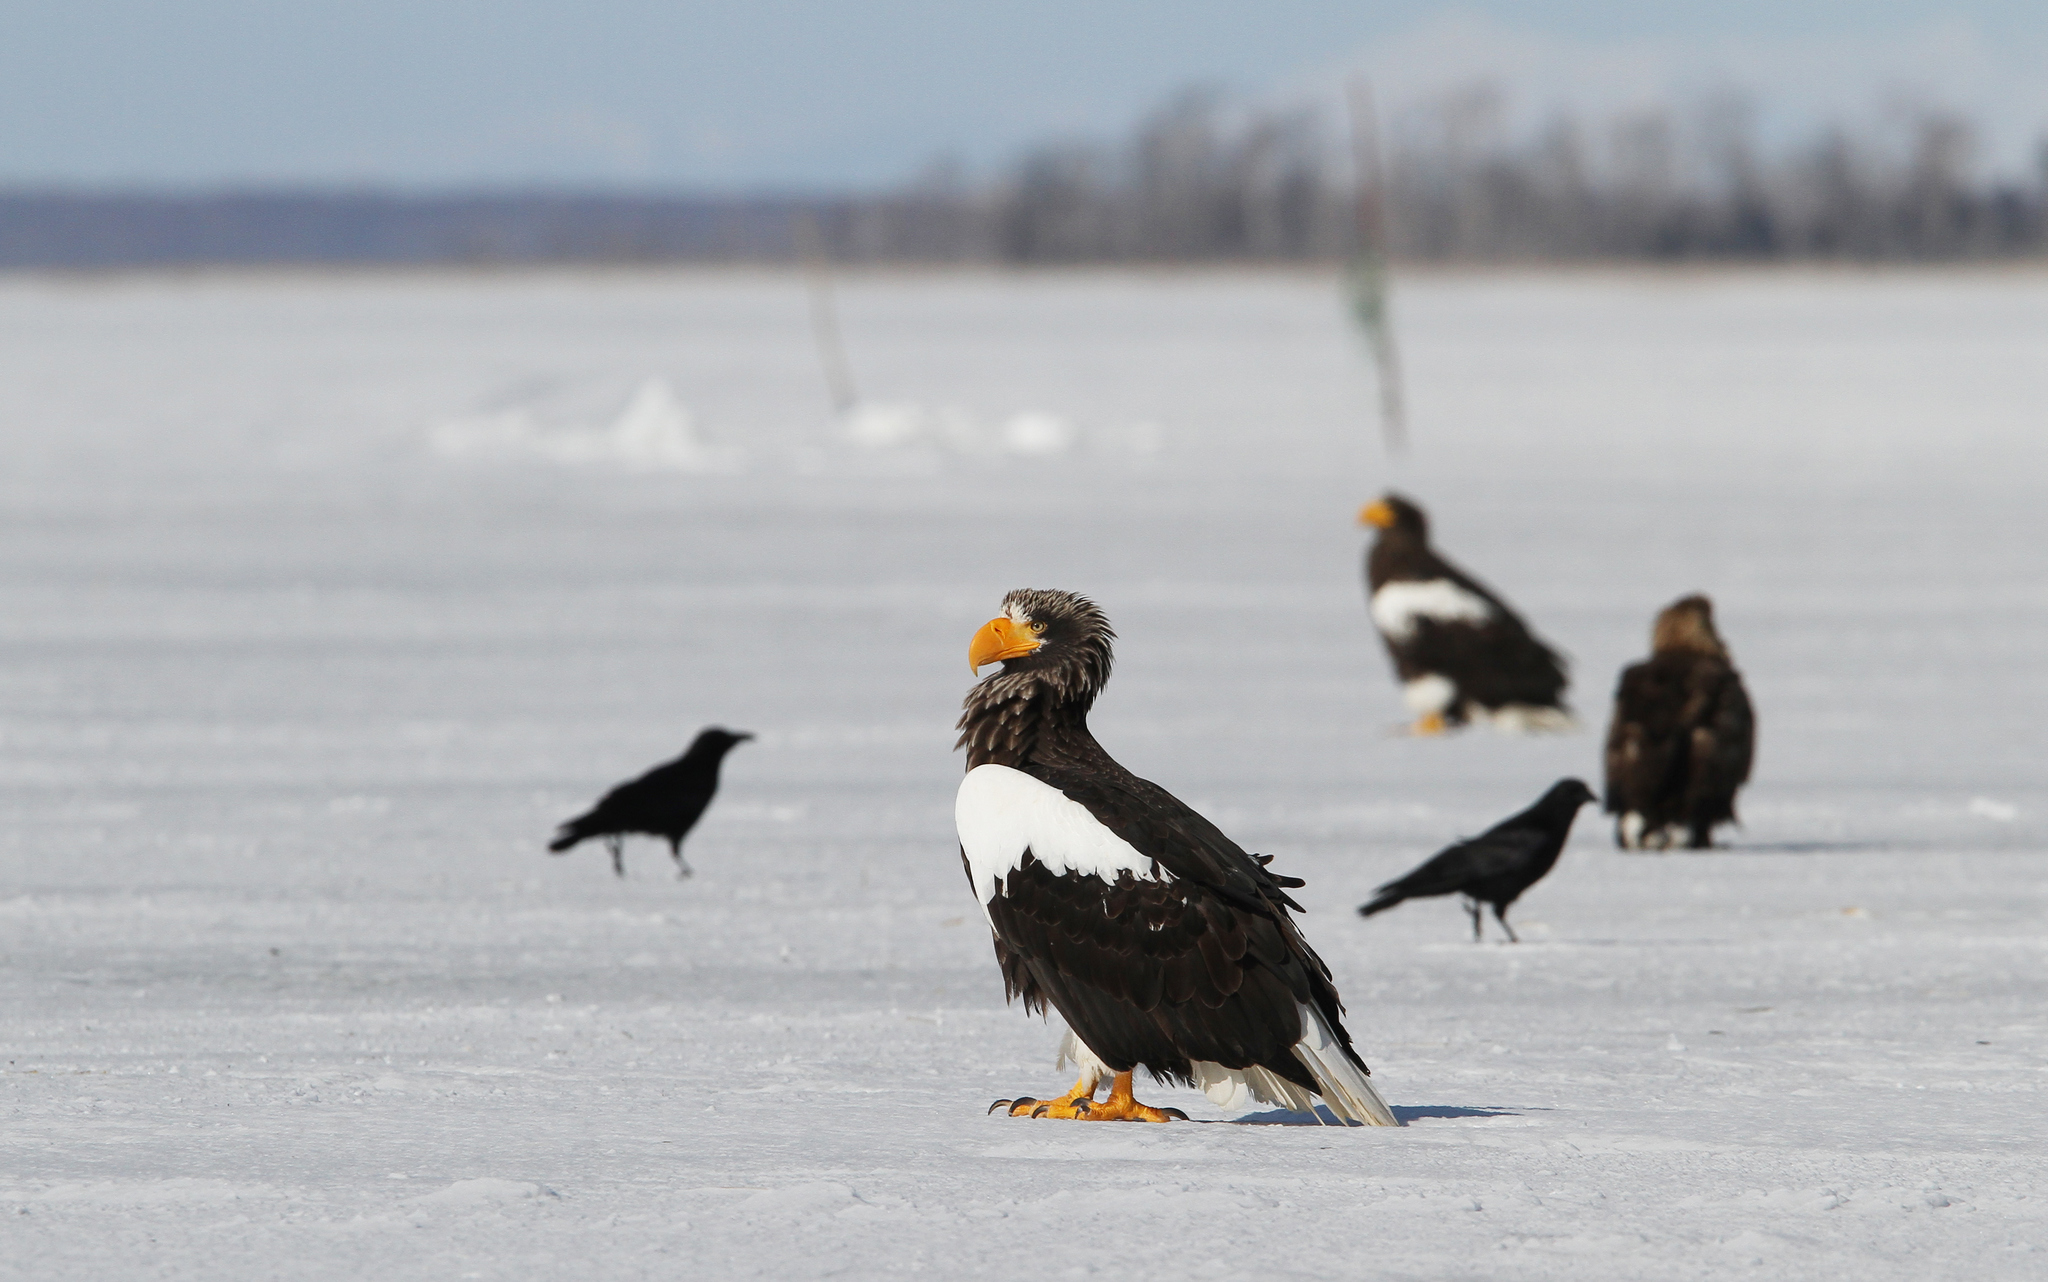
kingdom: Animalia
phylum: Chordata
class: Aves
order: Accipitriformes
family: Accipitridae
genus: Haliaeetus
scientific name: Haliaeetus pelagicus
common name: Steller's sea eagle
